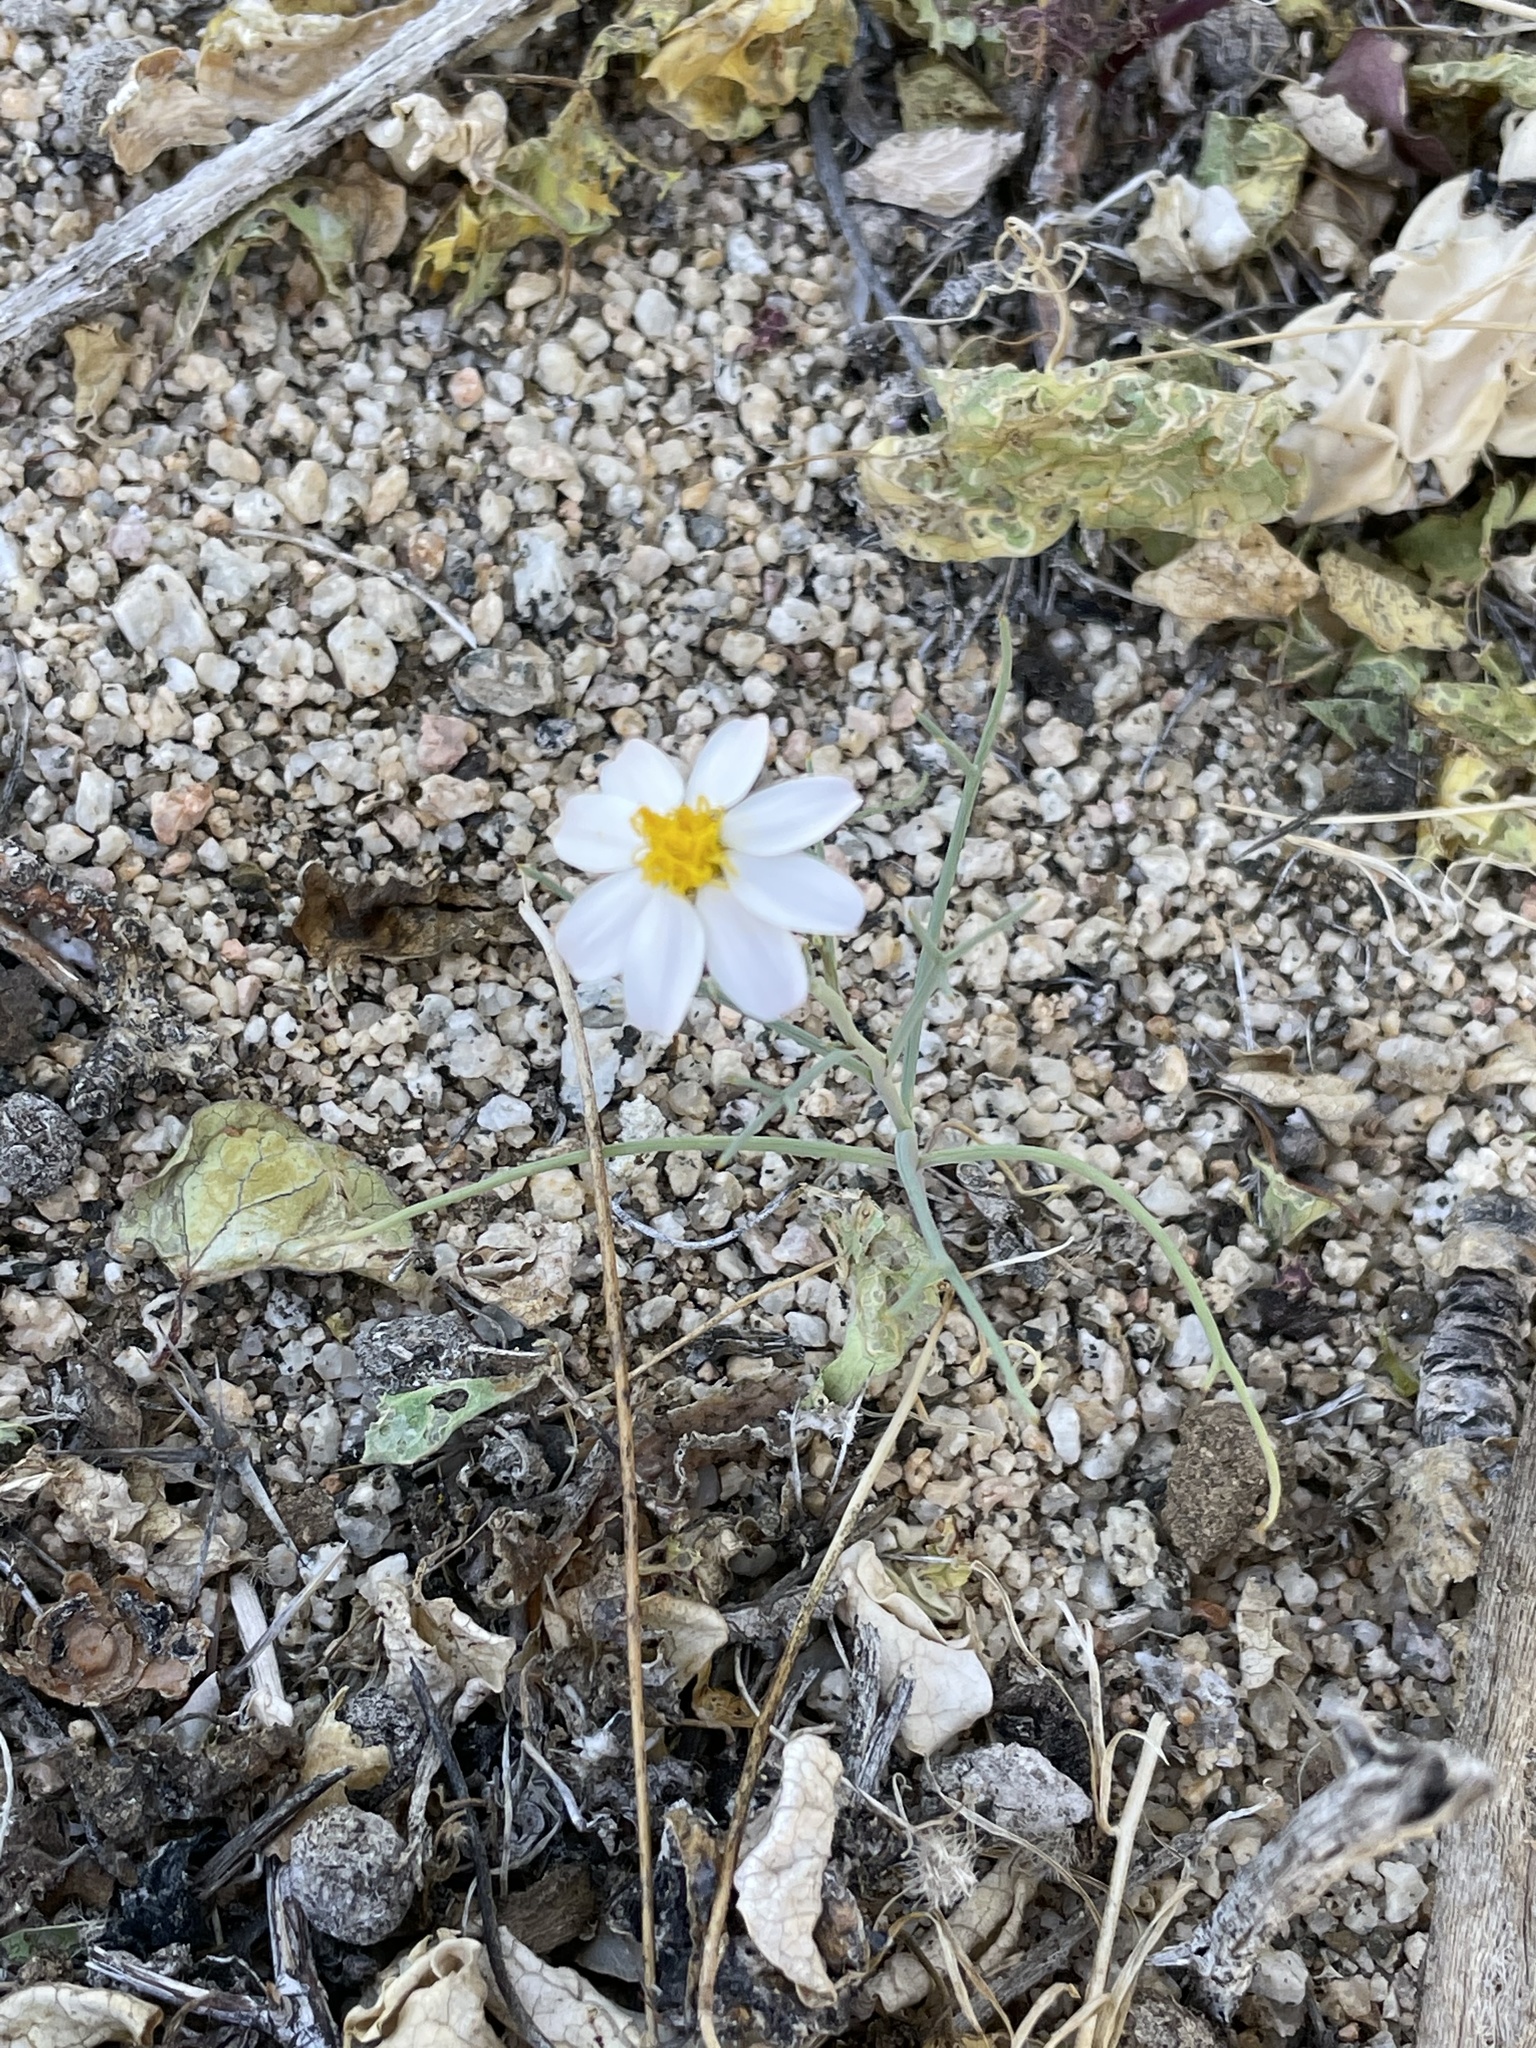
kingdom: Plantae
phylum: Tracheophyta
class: Magnoliopsida
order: Asterales
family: Asteraceae
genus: Nicolletia
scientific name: Nicolletia trifida
